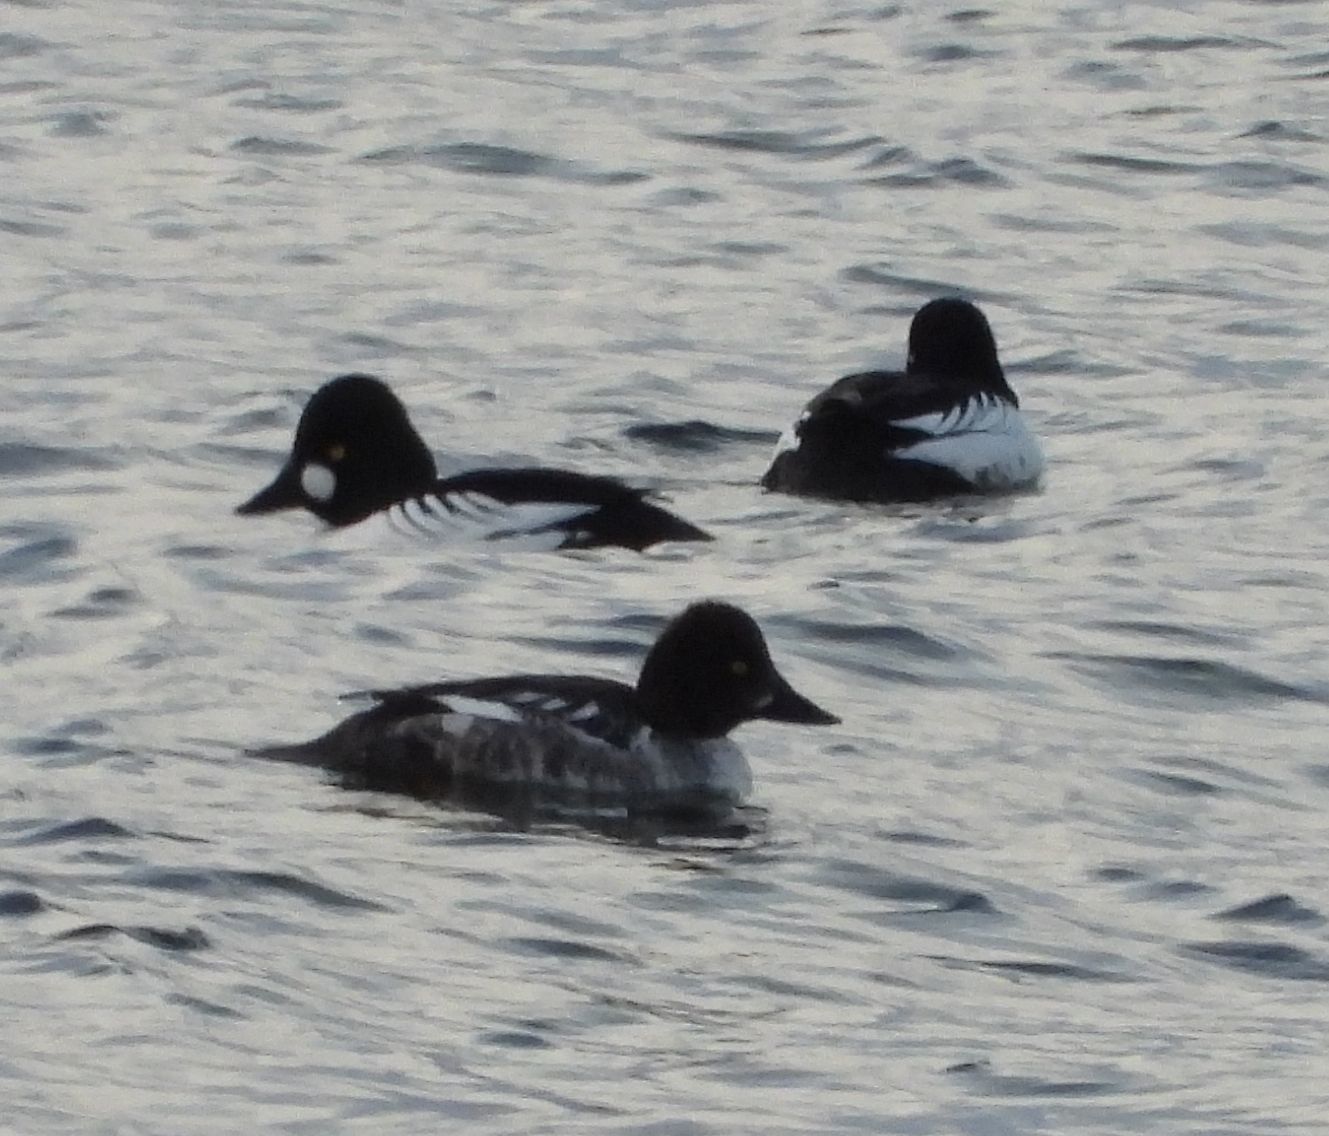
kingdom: Animalia
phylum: Chordata
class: Aves
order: Anseriformes
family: Anatidae
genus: Bucephala
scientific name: Bucephala clangula
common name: Common goldeneye
